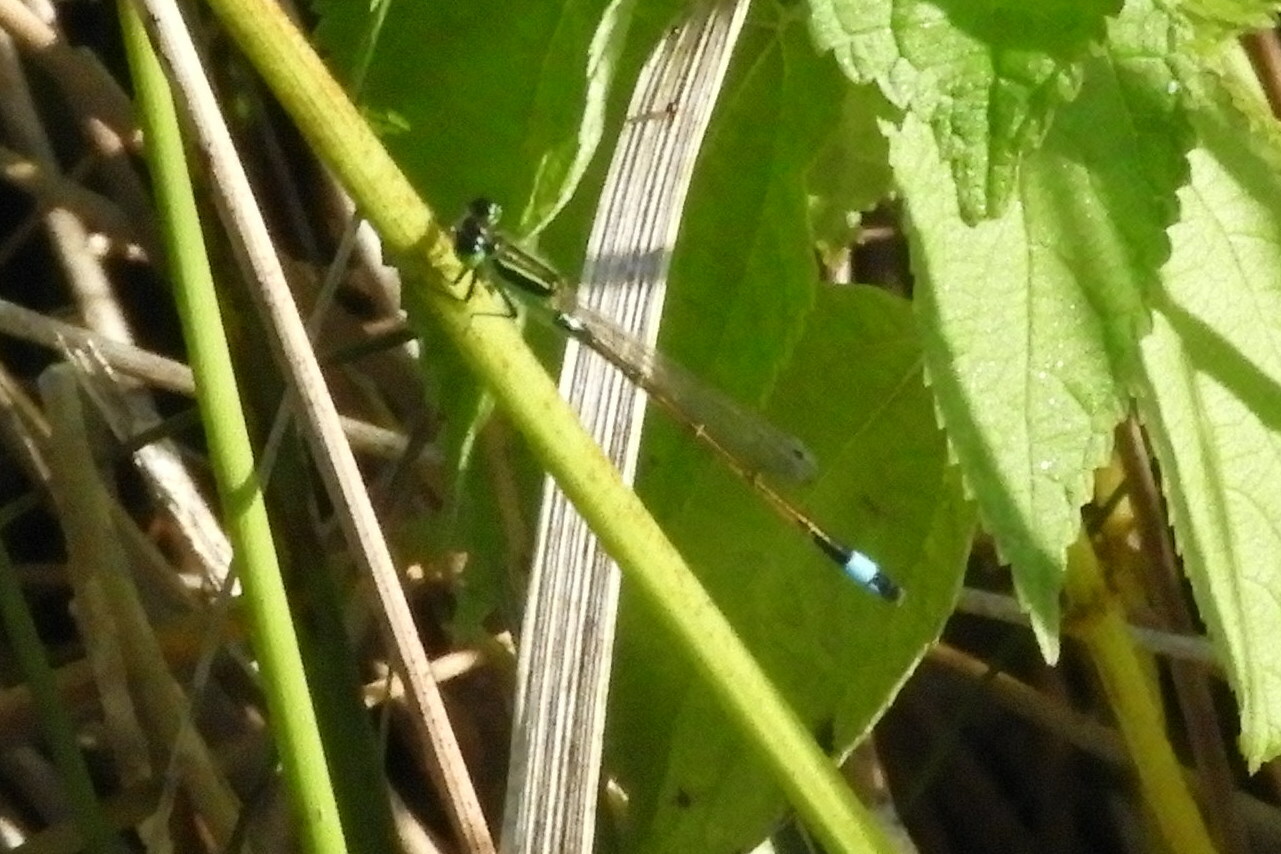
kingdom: Animalia
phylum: Arthropoda
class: Insecta
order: Odonata
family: Coenagrionidae
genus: Ischnura
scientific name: Ischnura ramburii
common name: Rambur's forktail
